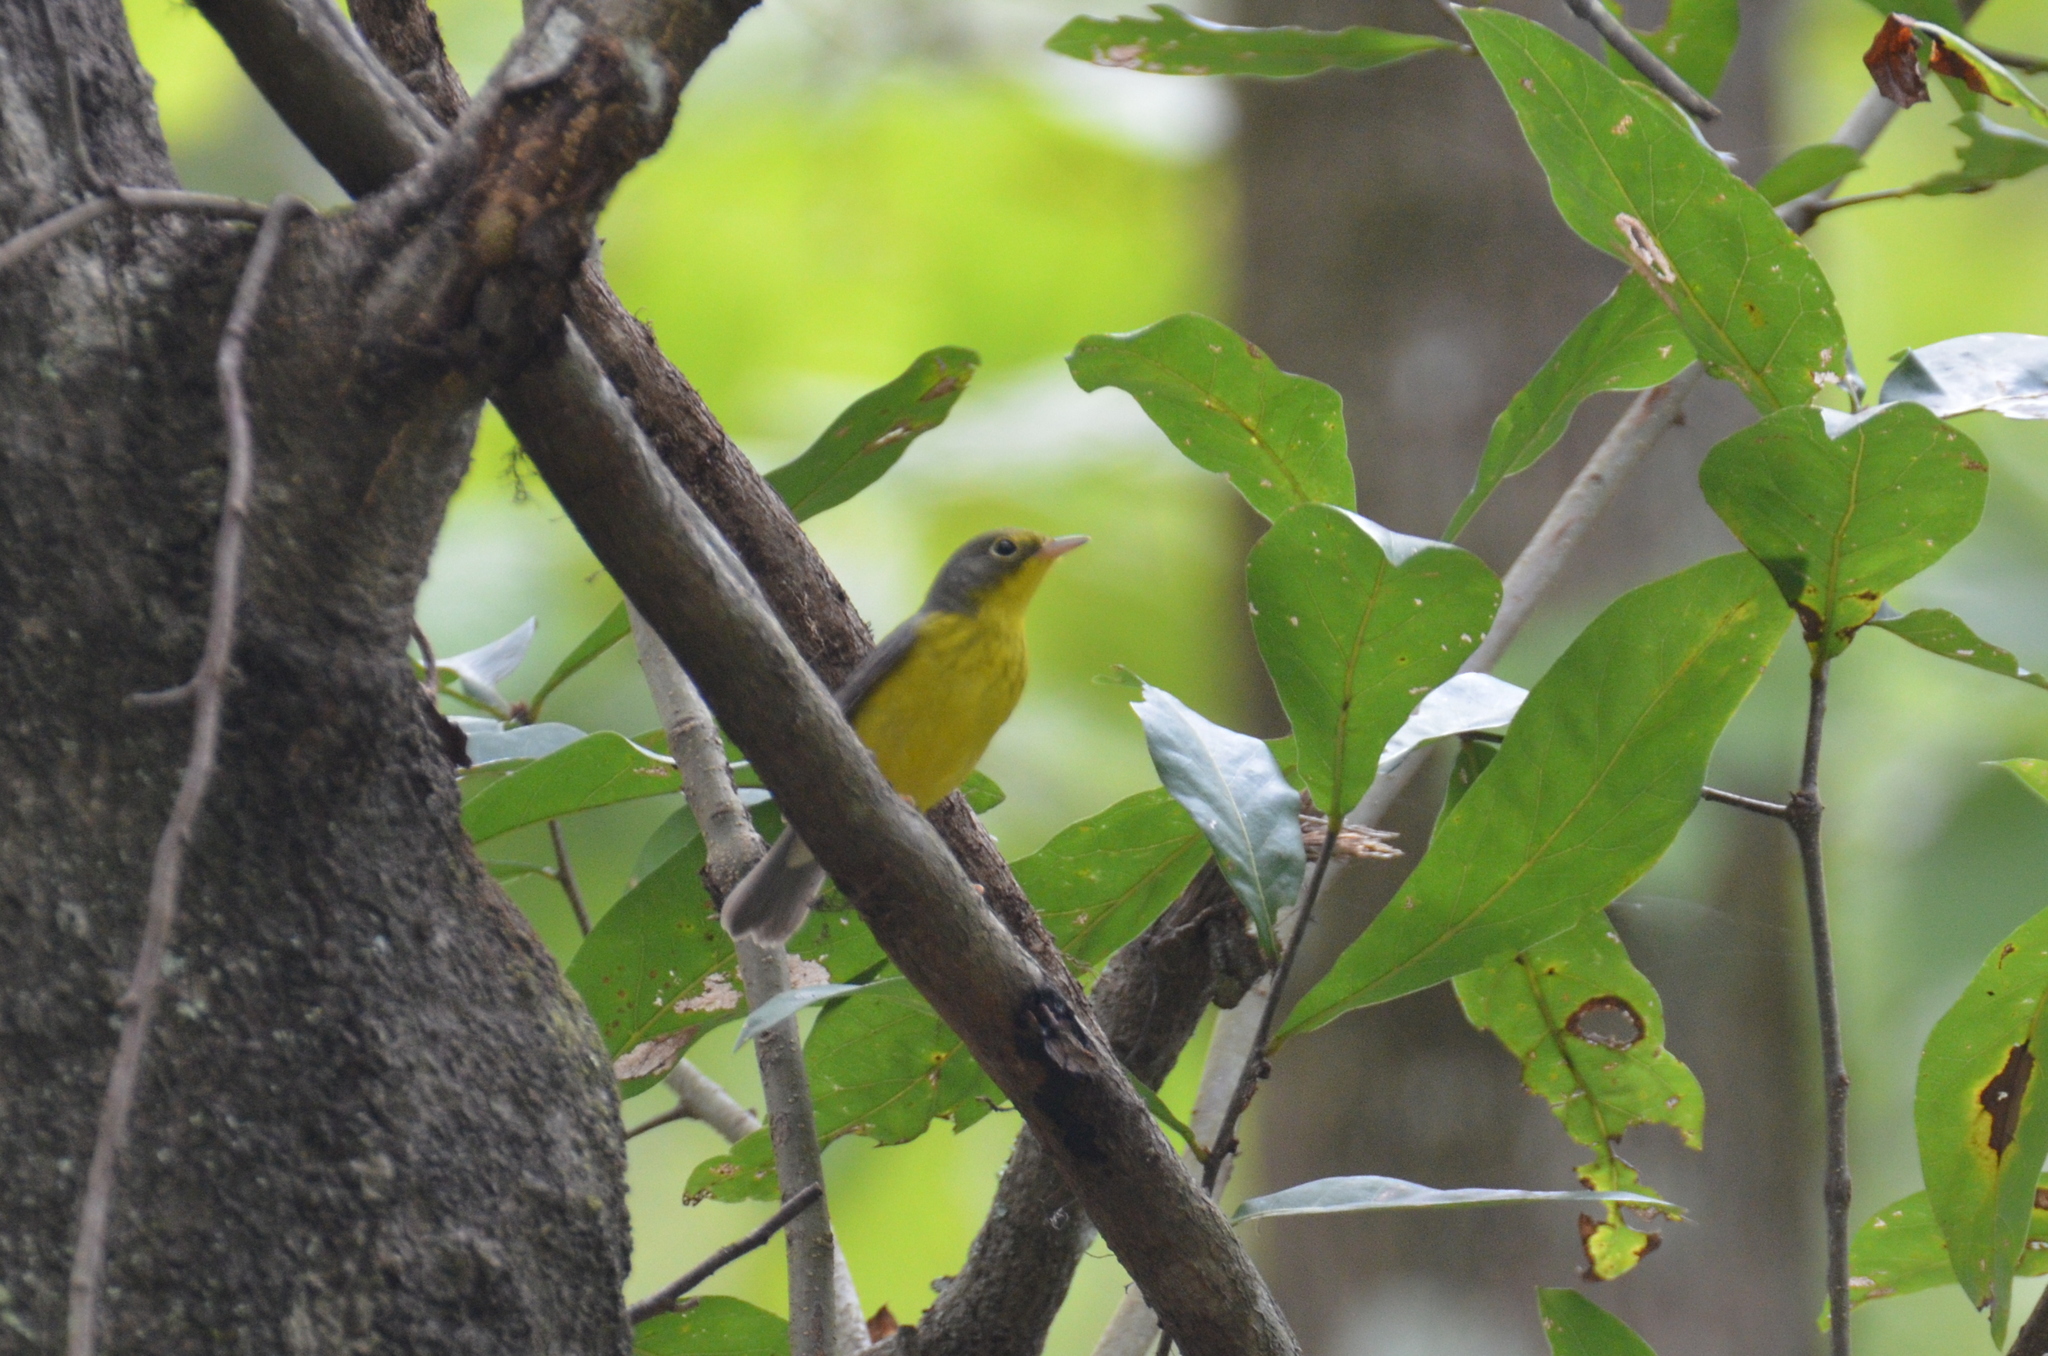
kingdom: Animalia
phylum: Chordata
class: Aves
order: Passeriformes
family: Parulidae
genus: Cardellina
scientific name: Cardellina canadensis
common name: Canada warbler
